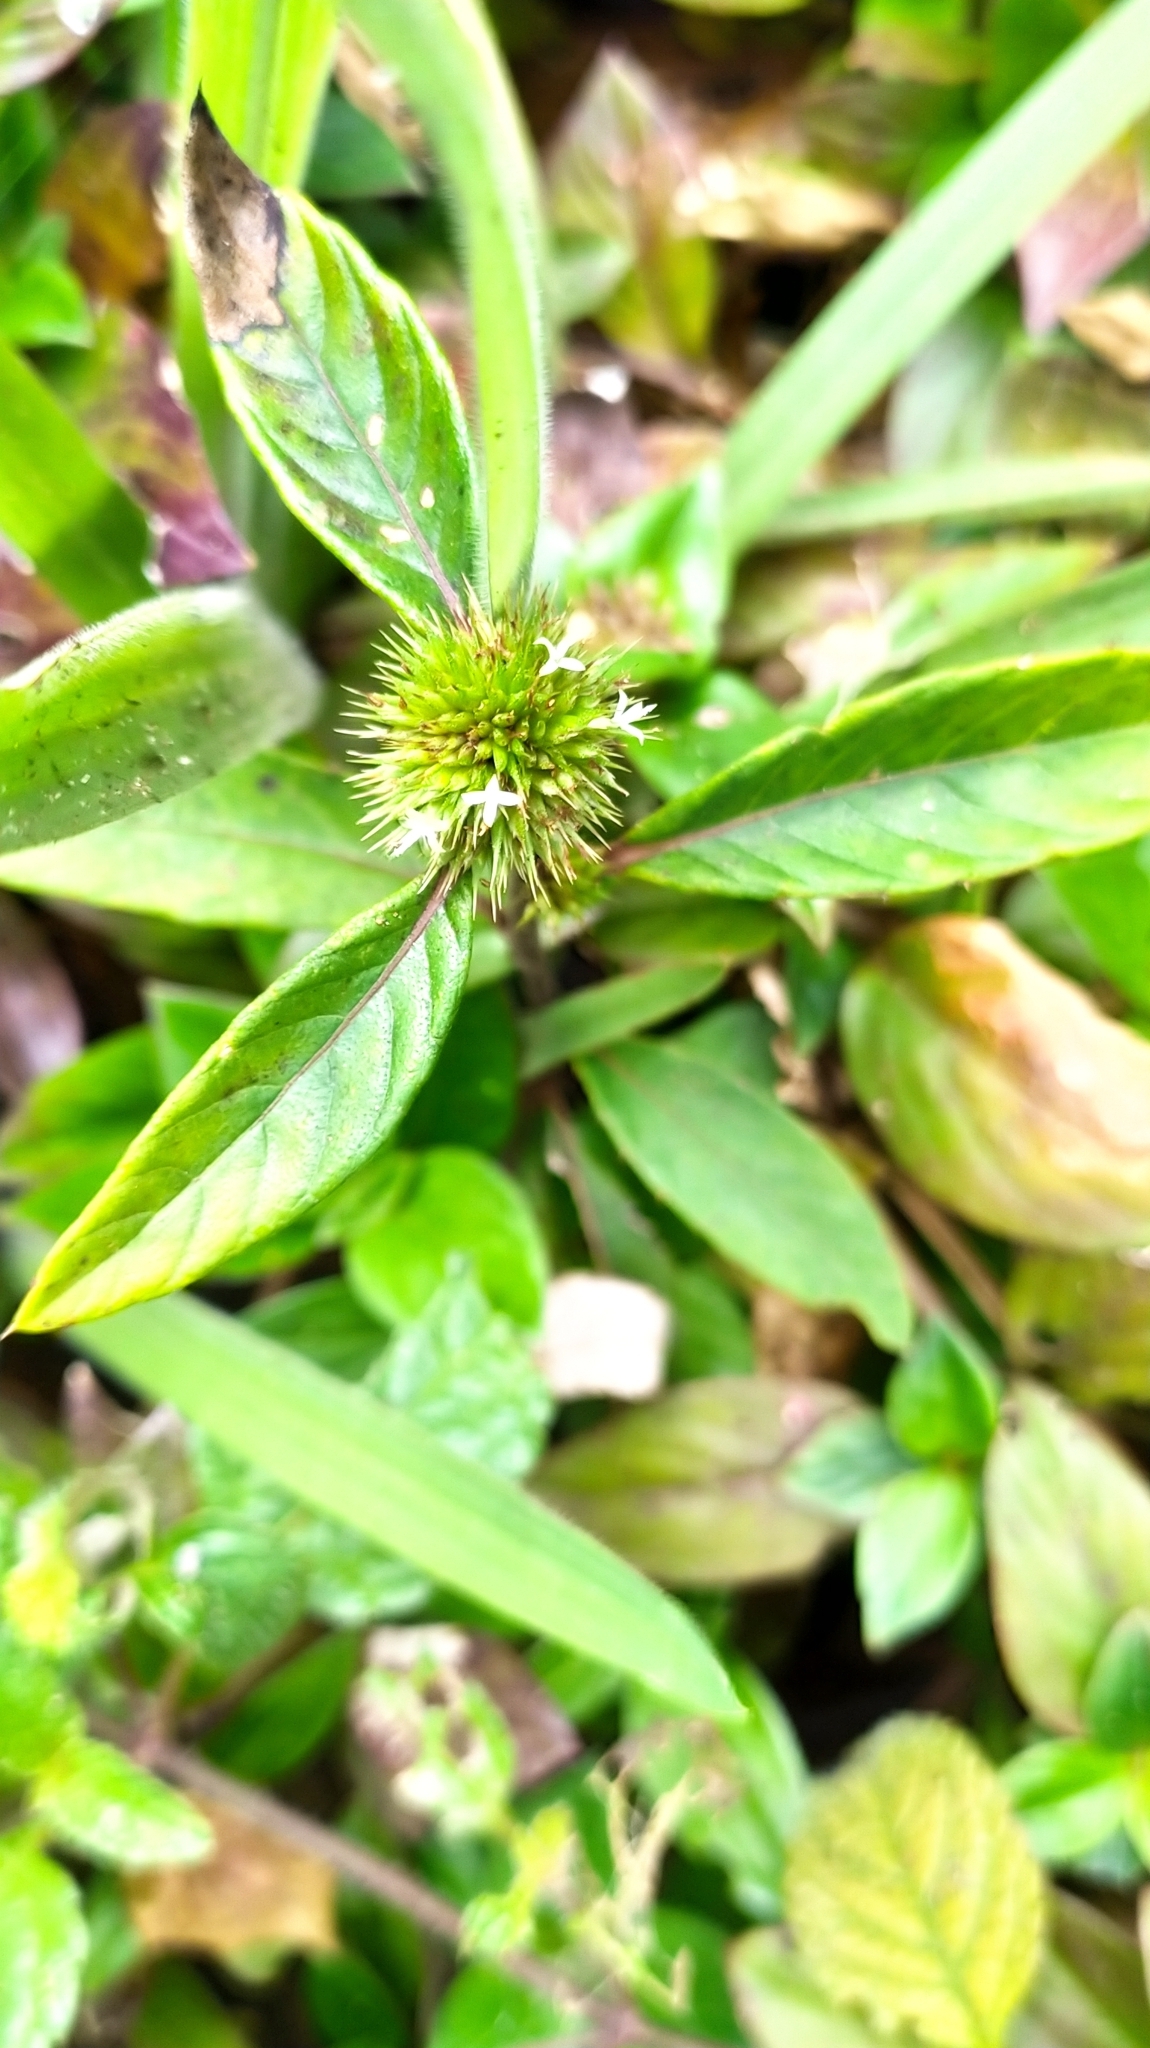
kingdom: Plantae
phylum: Tracheophyta
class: Magnoliopsida
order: Asterales
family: Asteraceae
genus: Rolandra
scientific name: Rolandra fruticosa
